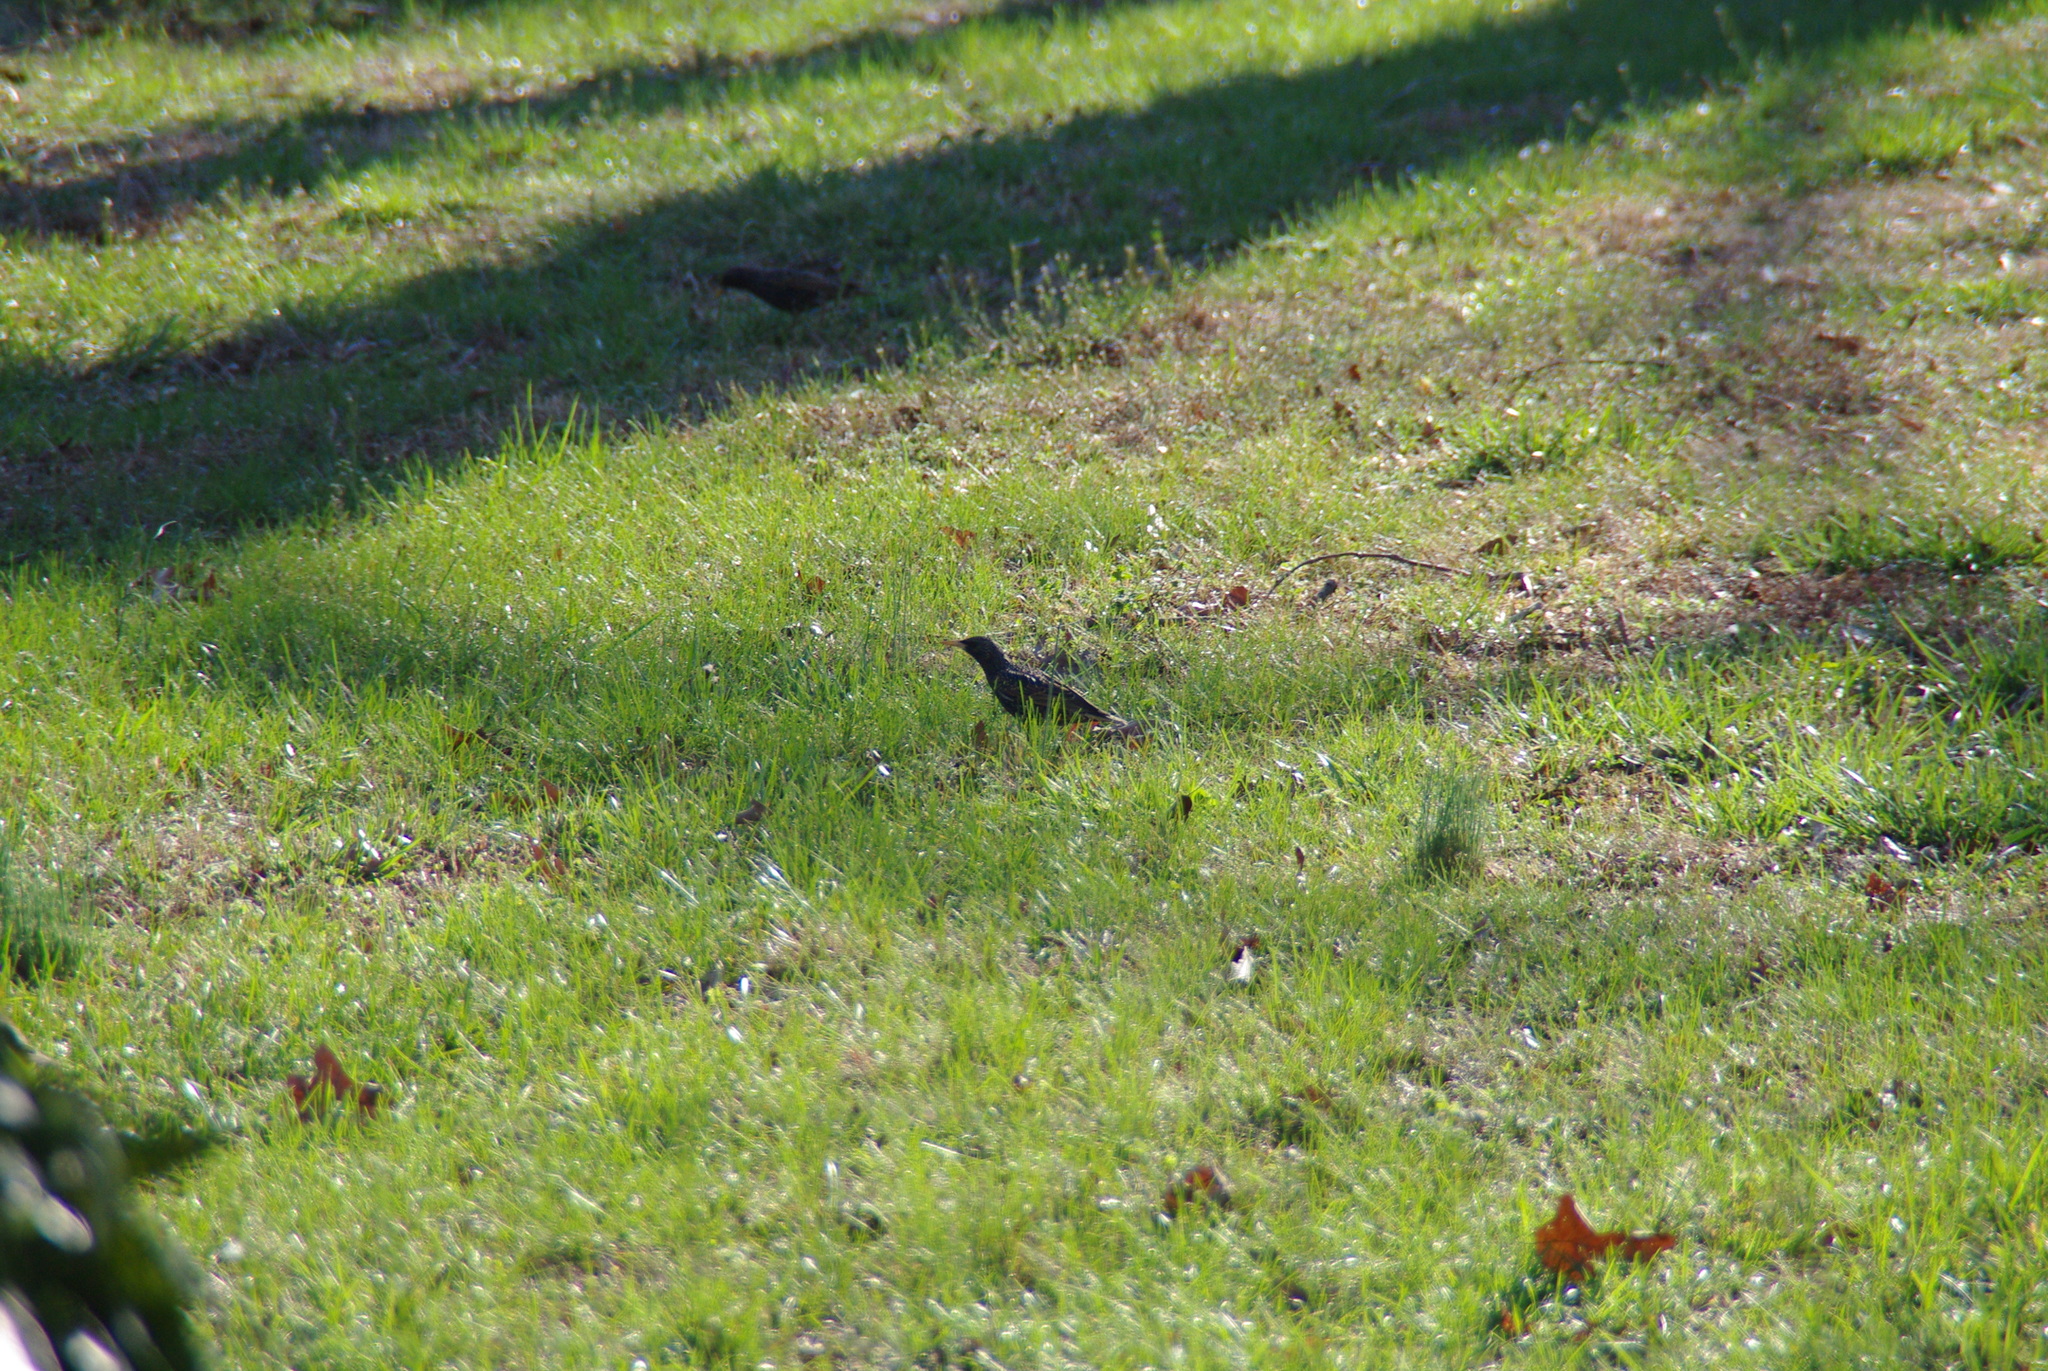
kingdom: Animalia
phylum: Chordata
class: Aves
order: Passeriformes
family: Sturnidae
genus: Sturnus
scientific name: Sturnus vulgaris
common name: Common starling
